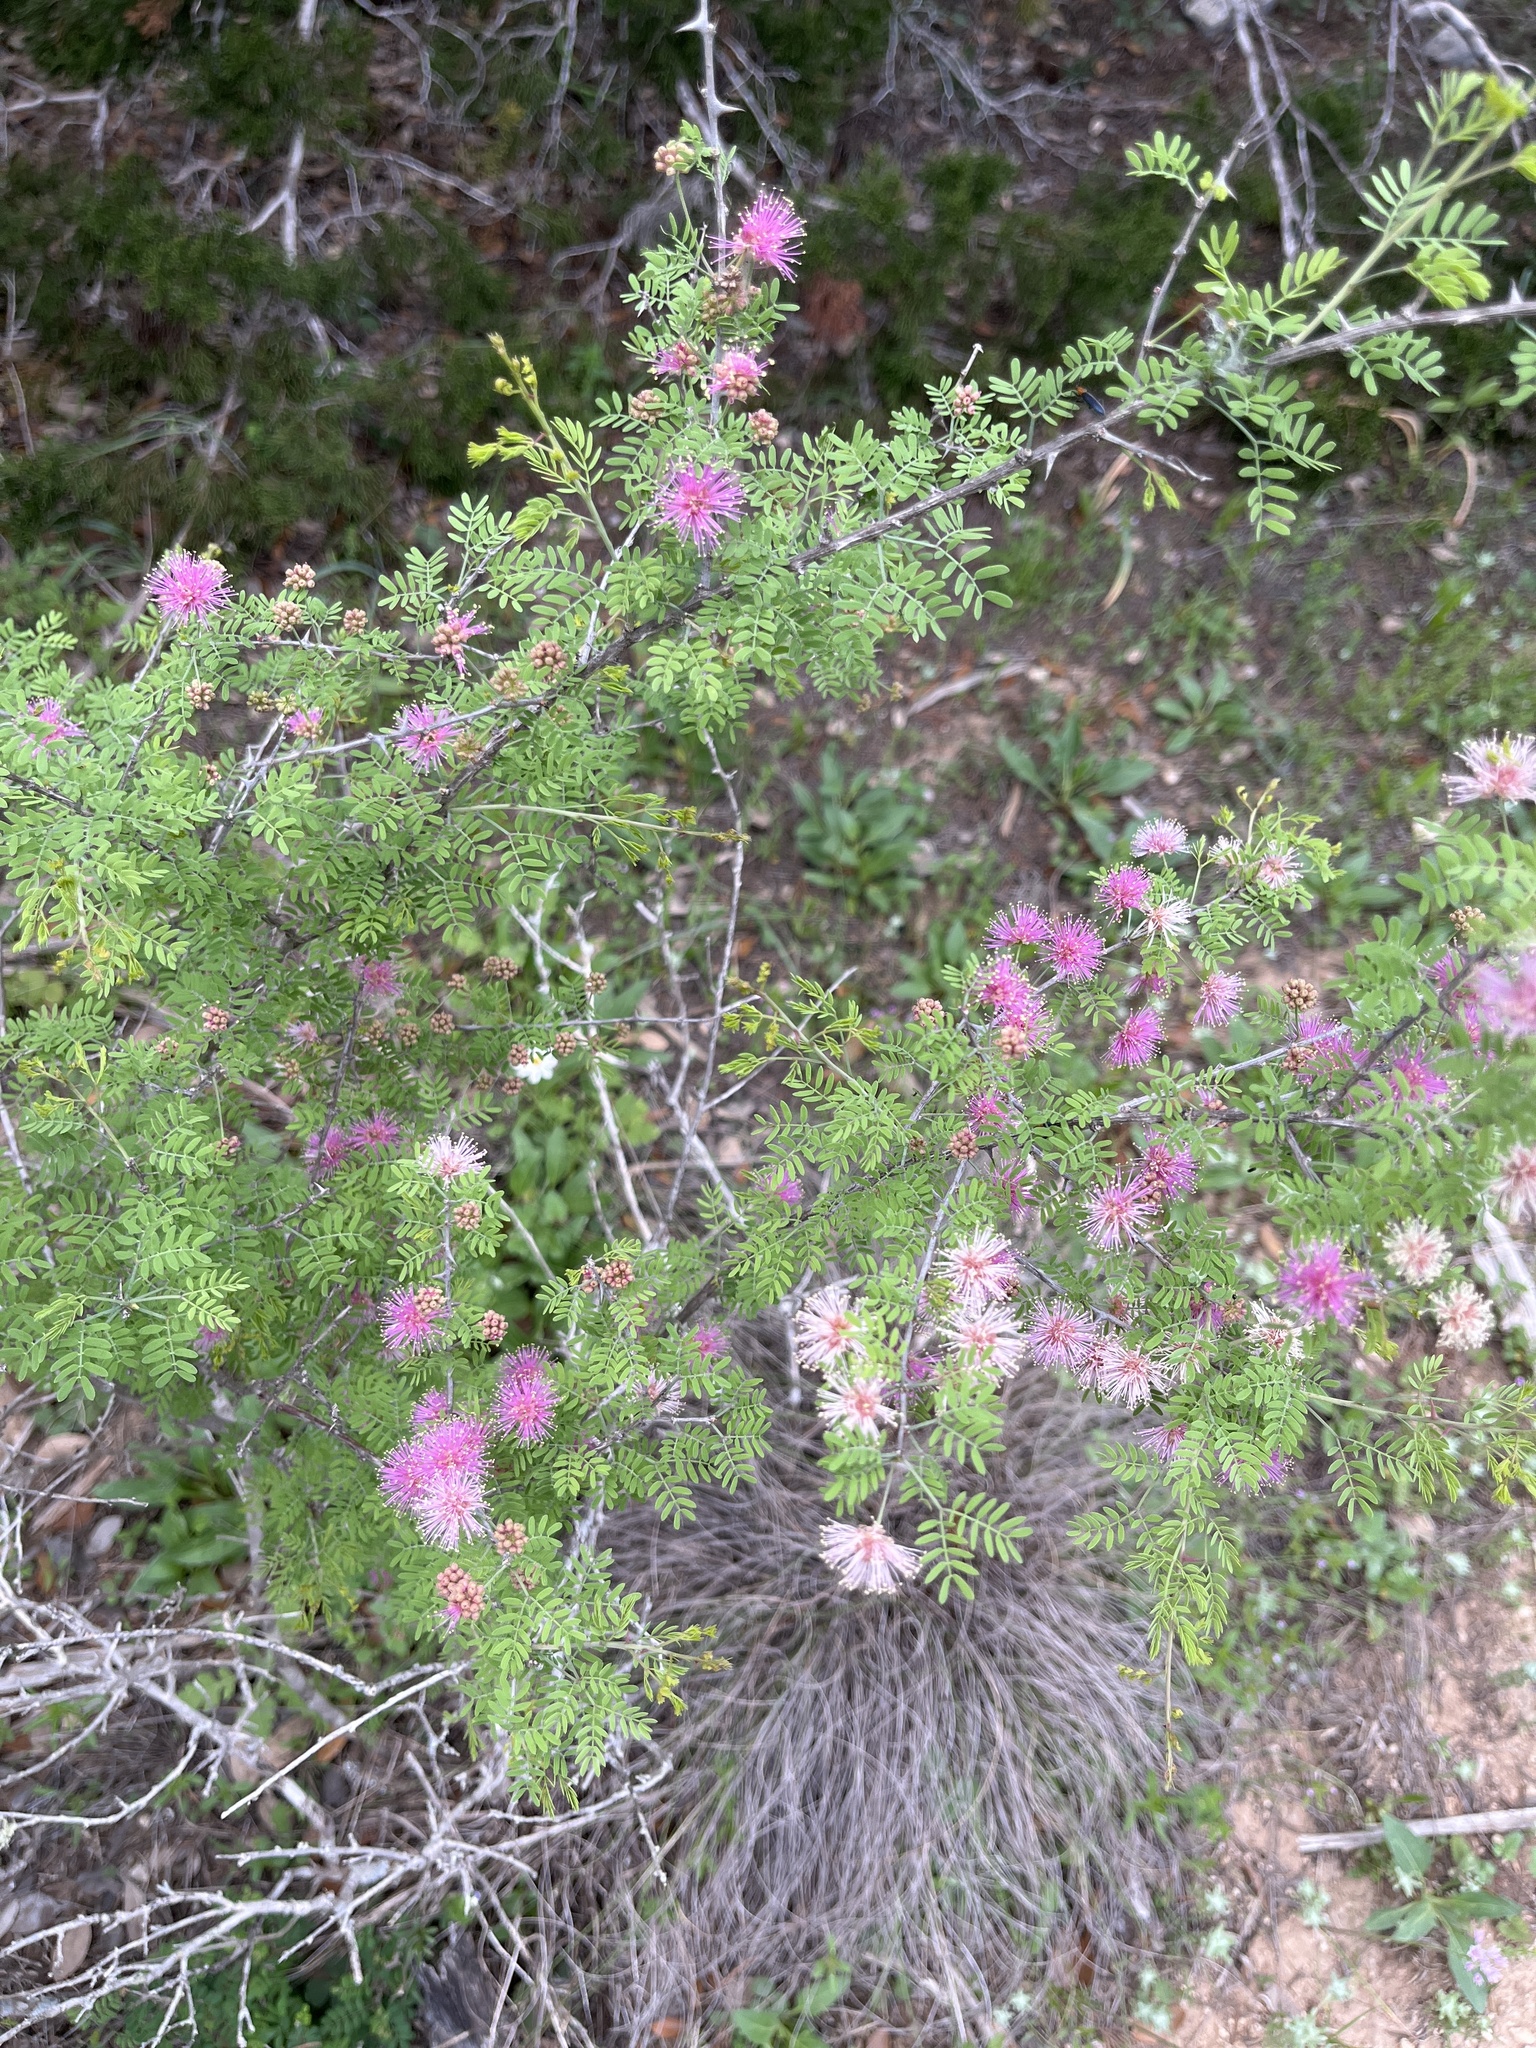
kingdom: Plantae
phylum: Tracheophyta
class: Magnoliopsida
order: Fabales
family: Fabaceae
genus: Mimosa
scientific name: Mimosa borealis
